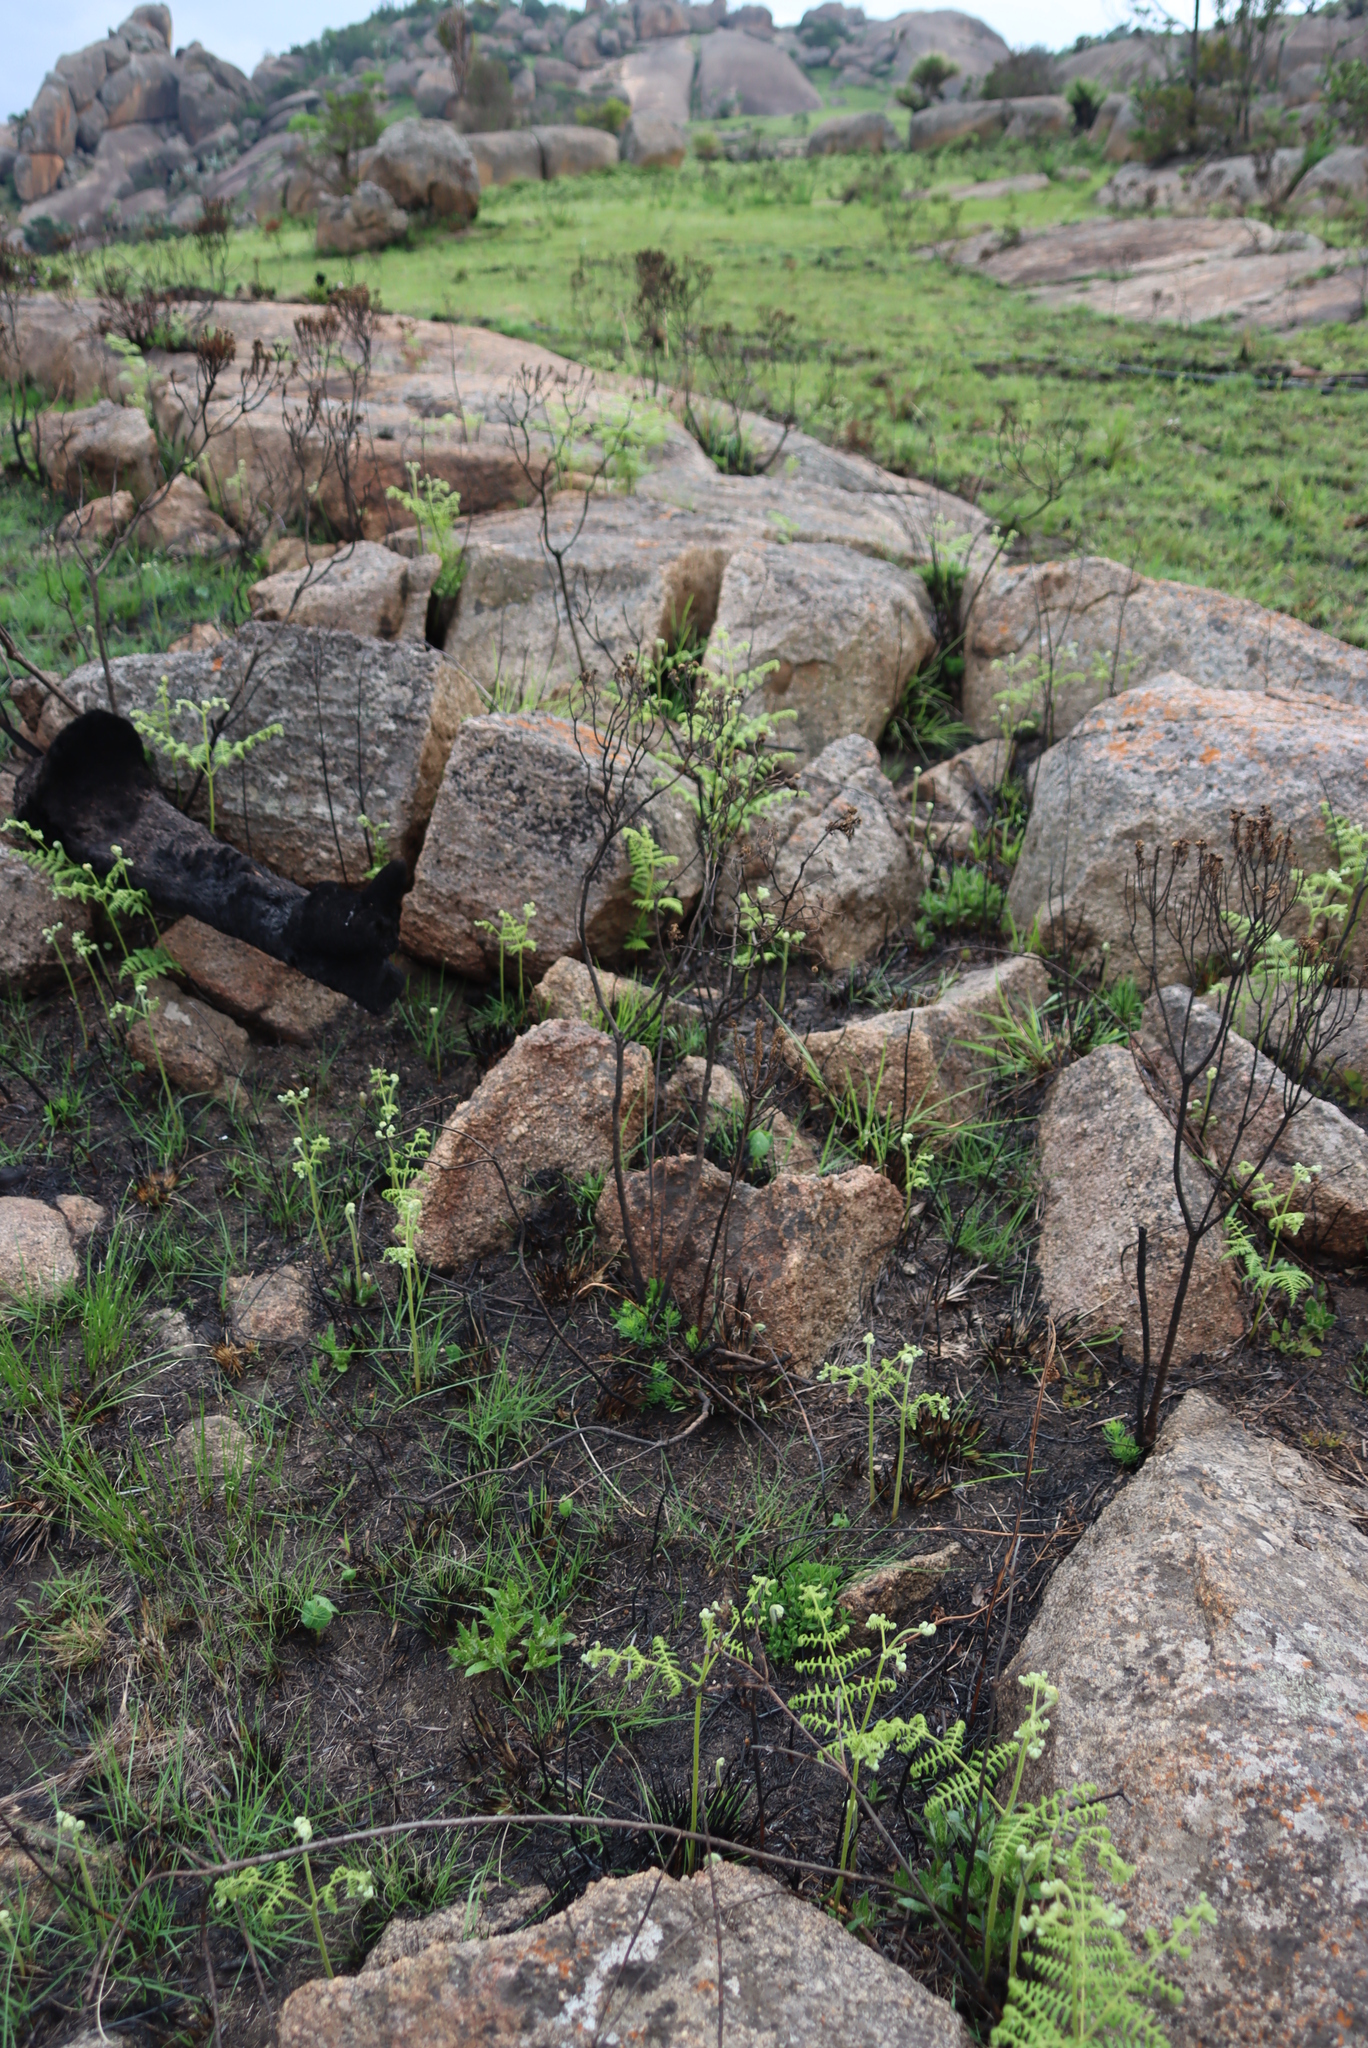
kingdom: Plantae
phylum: Tracheophyta
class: Polypodiopsida
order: Polypodiales
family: Dennstaedtiaceae
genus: Pteridium
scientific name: Pteridium aquilinum
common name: Bracken
